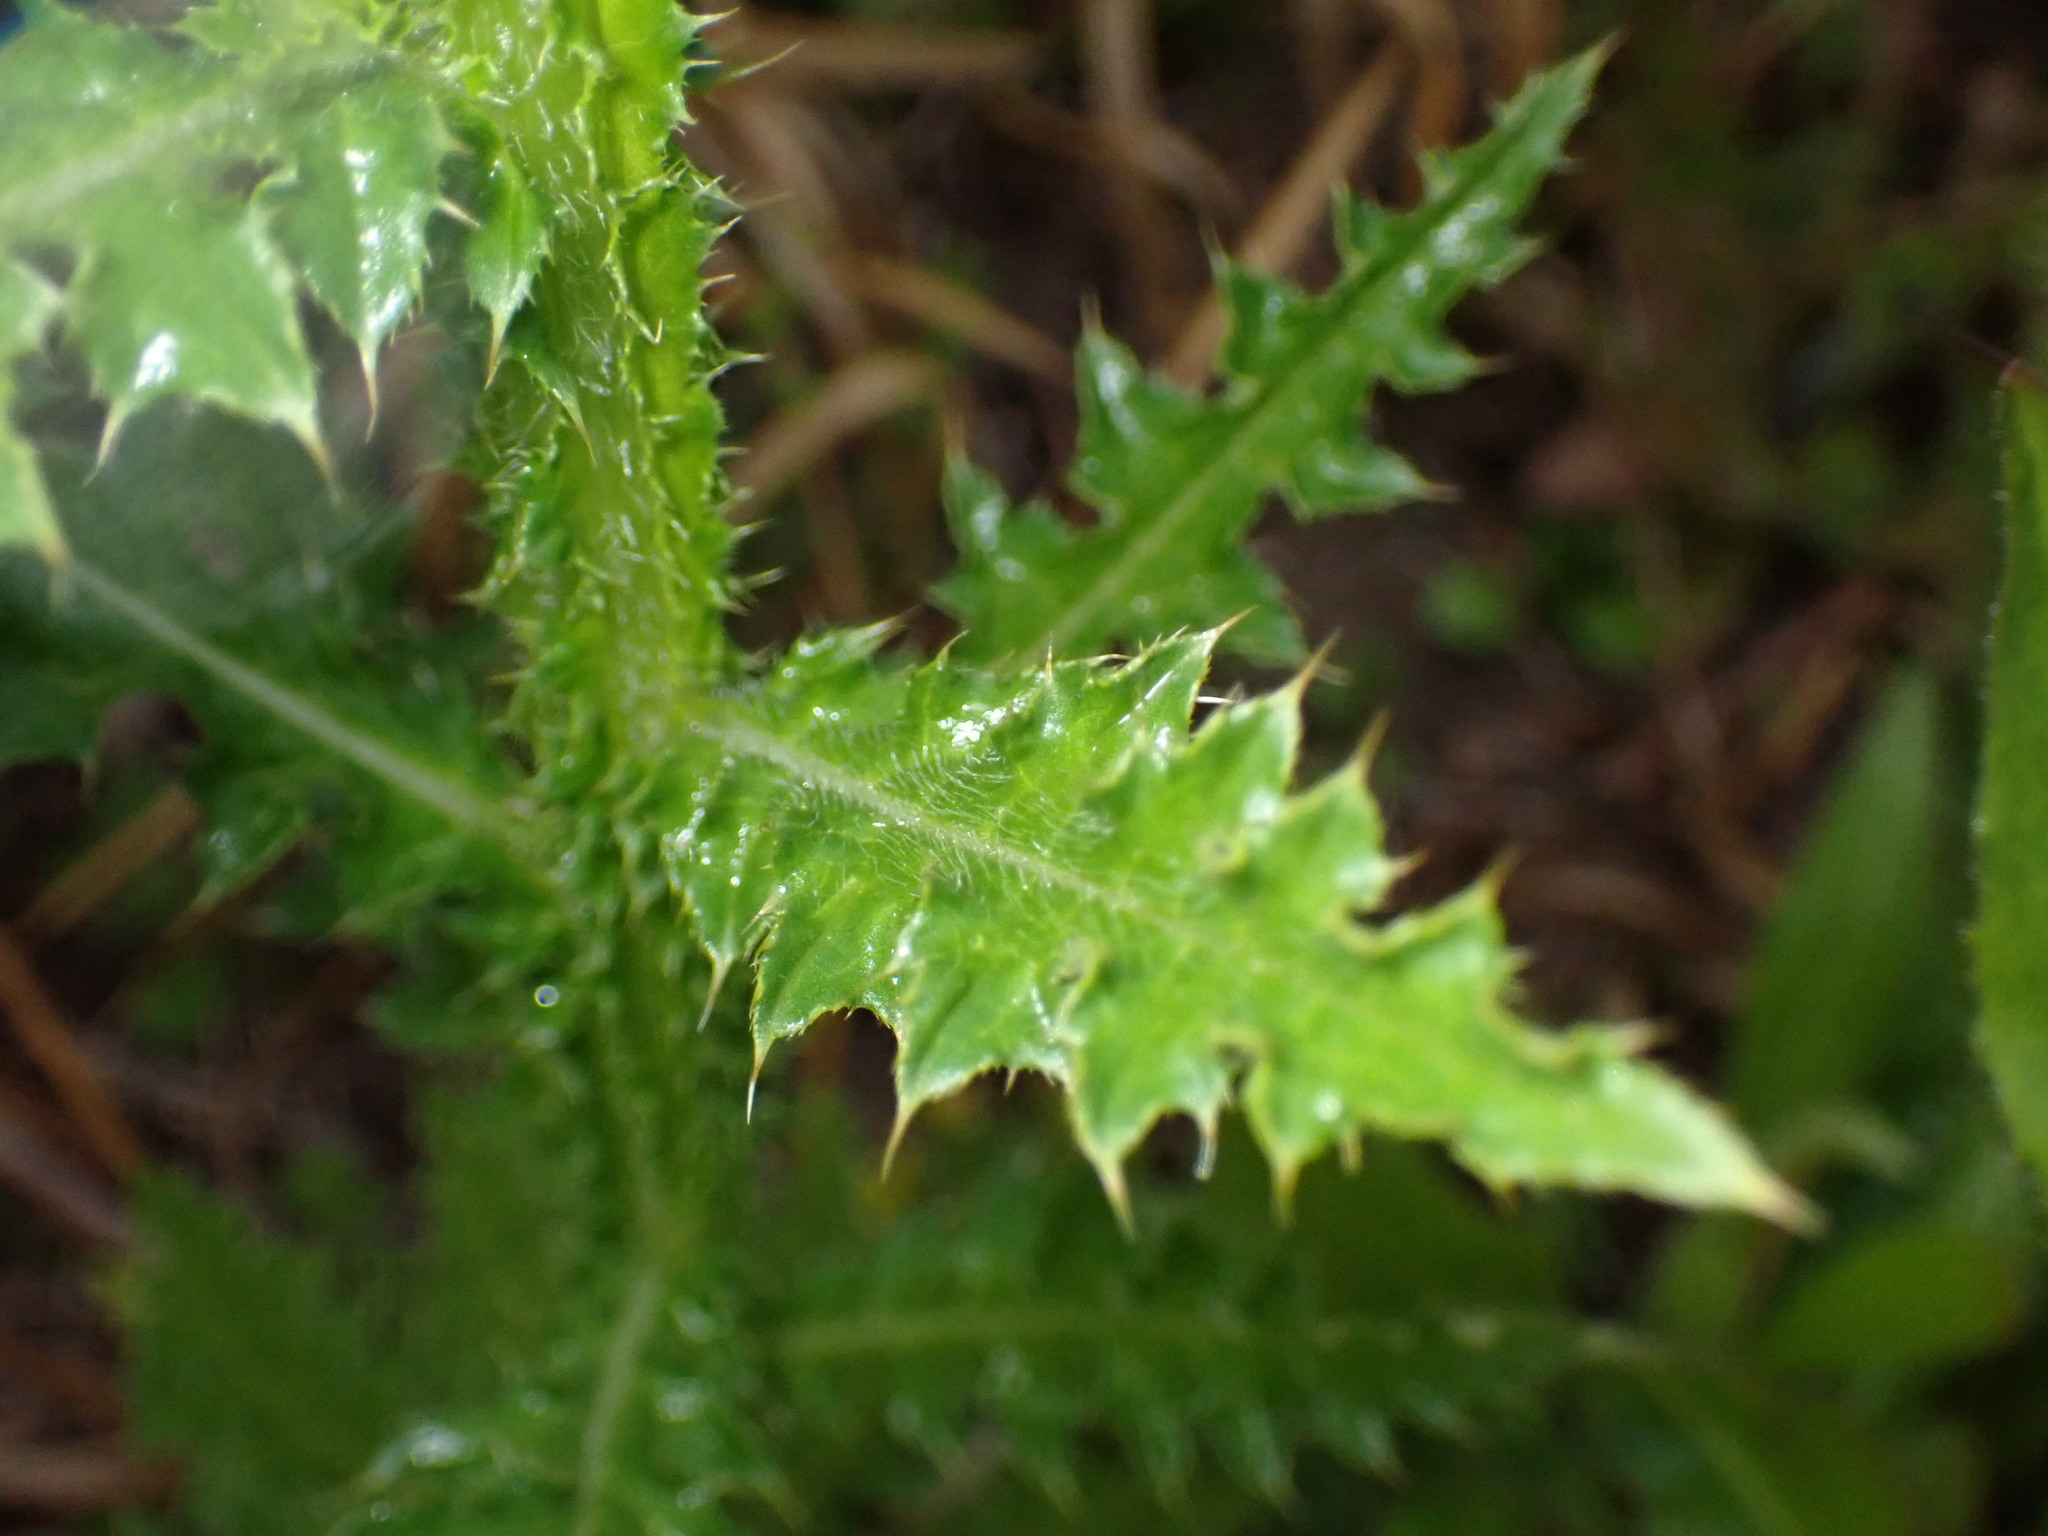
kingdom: Plantae
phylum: Tracheophyta
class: Magnoliopsida
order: Asterales
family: Asteraceae
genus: Carduus
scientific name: Carduus crispus
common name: Welted thistle
